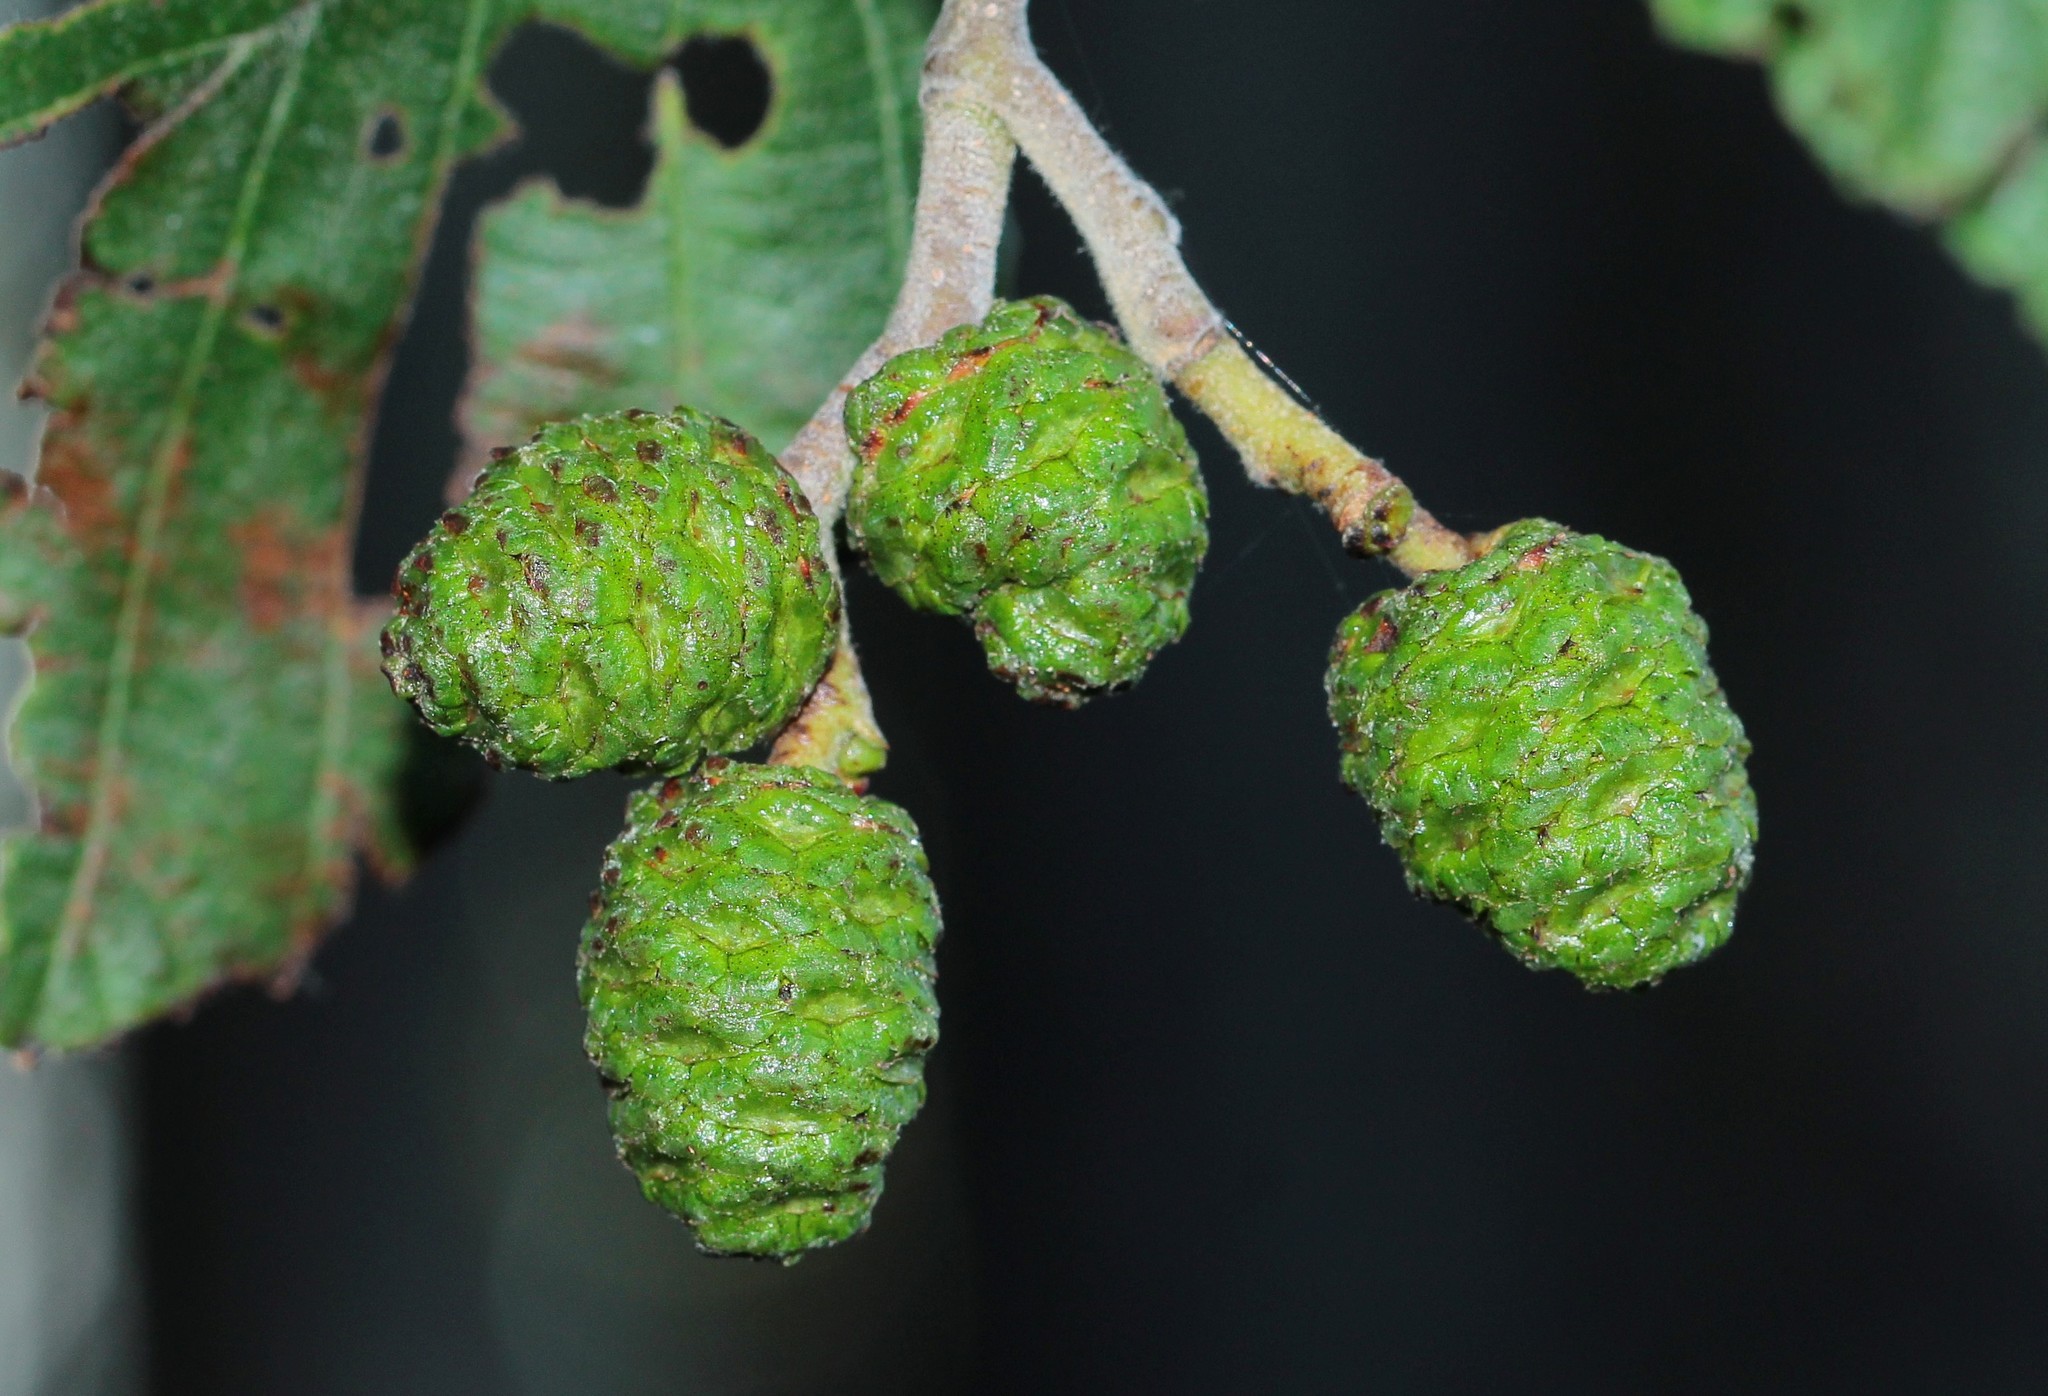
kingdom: Plantae
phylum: Tracheophyta
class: Magnoliopsida
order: Fagales
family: Betulaceae
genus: Alnus
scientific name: Alnus incana
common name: Grey alder
